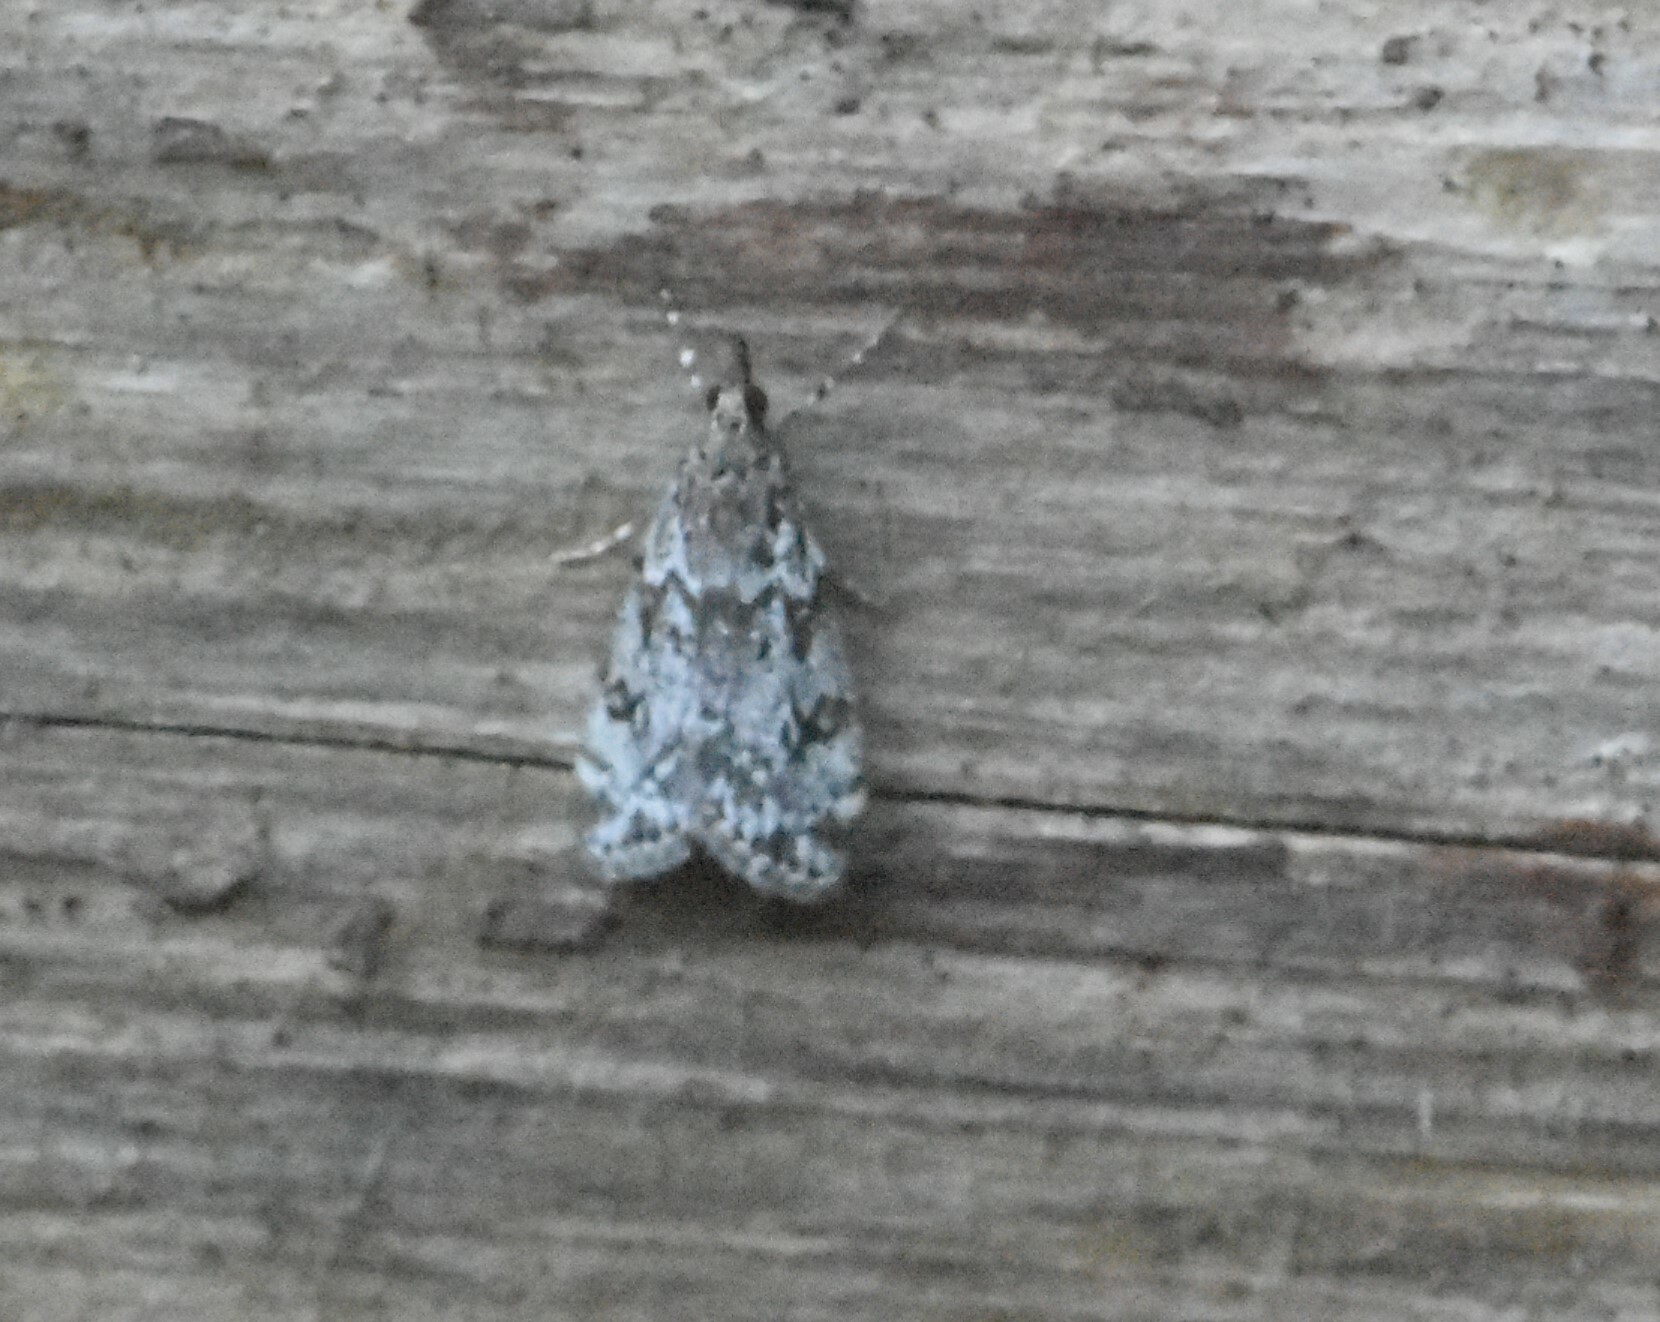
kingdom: Animalia
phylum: Arthropoda
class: Insecta
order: Lepidoptera
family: Crambidae
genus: Eudonia
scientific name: Eudonia lacustrata
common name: Little grey
